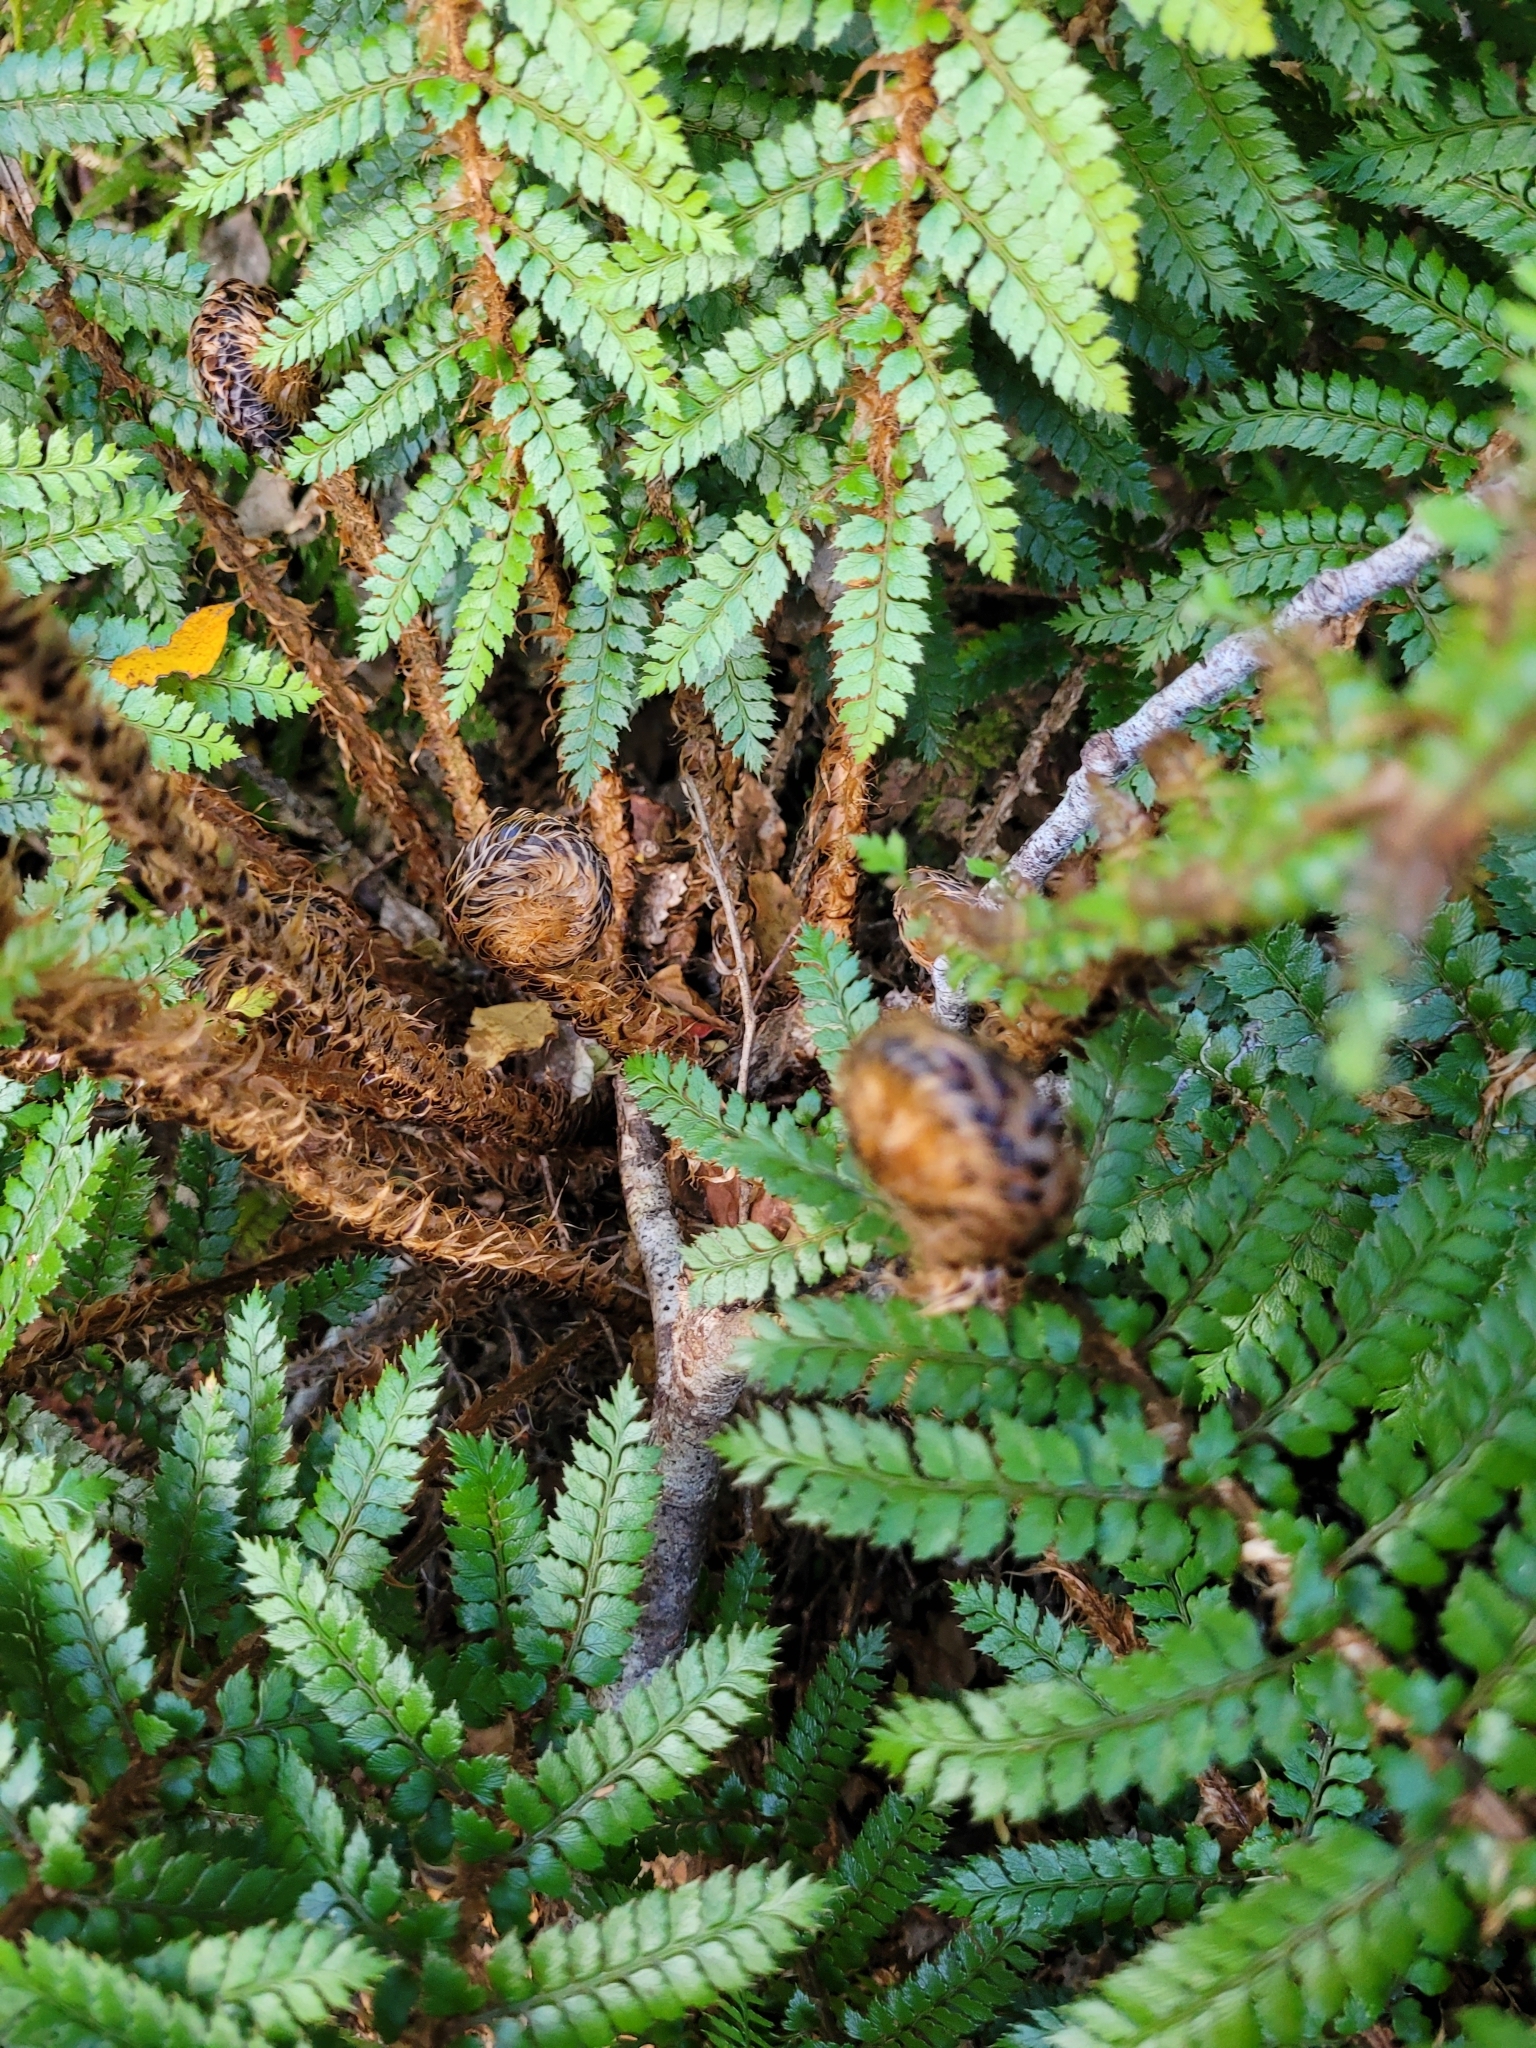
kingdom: Plantae
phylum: Tracheophyta
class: Polypodiopsida
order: Polypodiales
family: Dryopteridaceae
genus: Polystichum
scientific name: Polystichum vestitum
